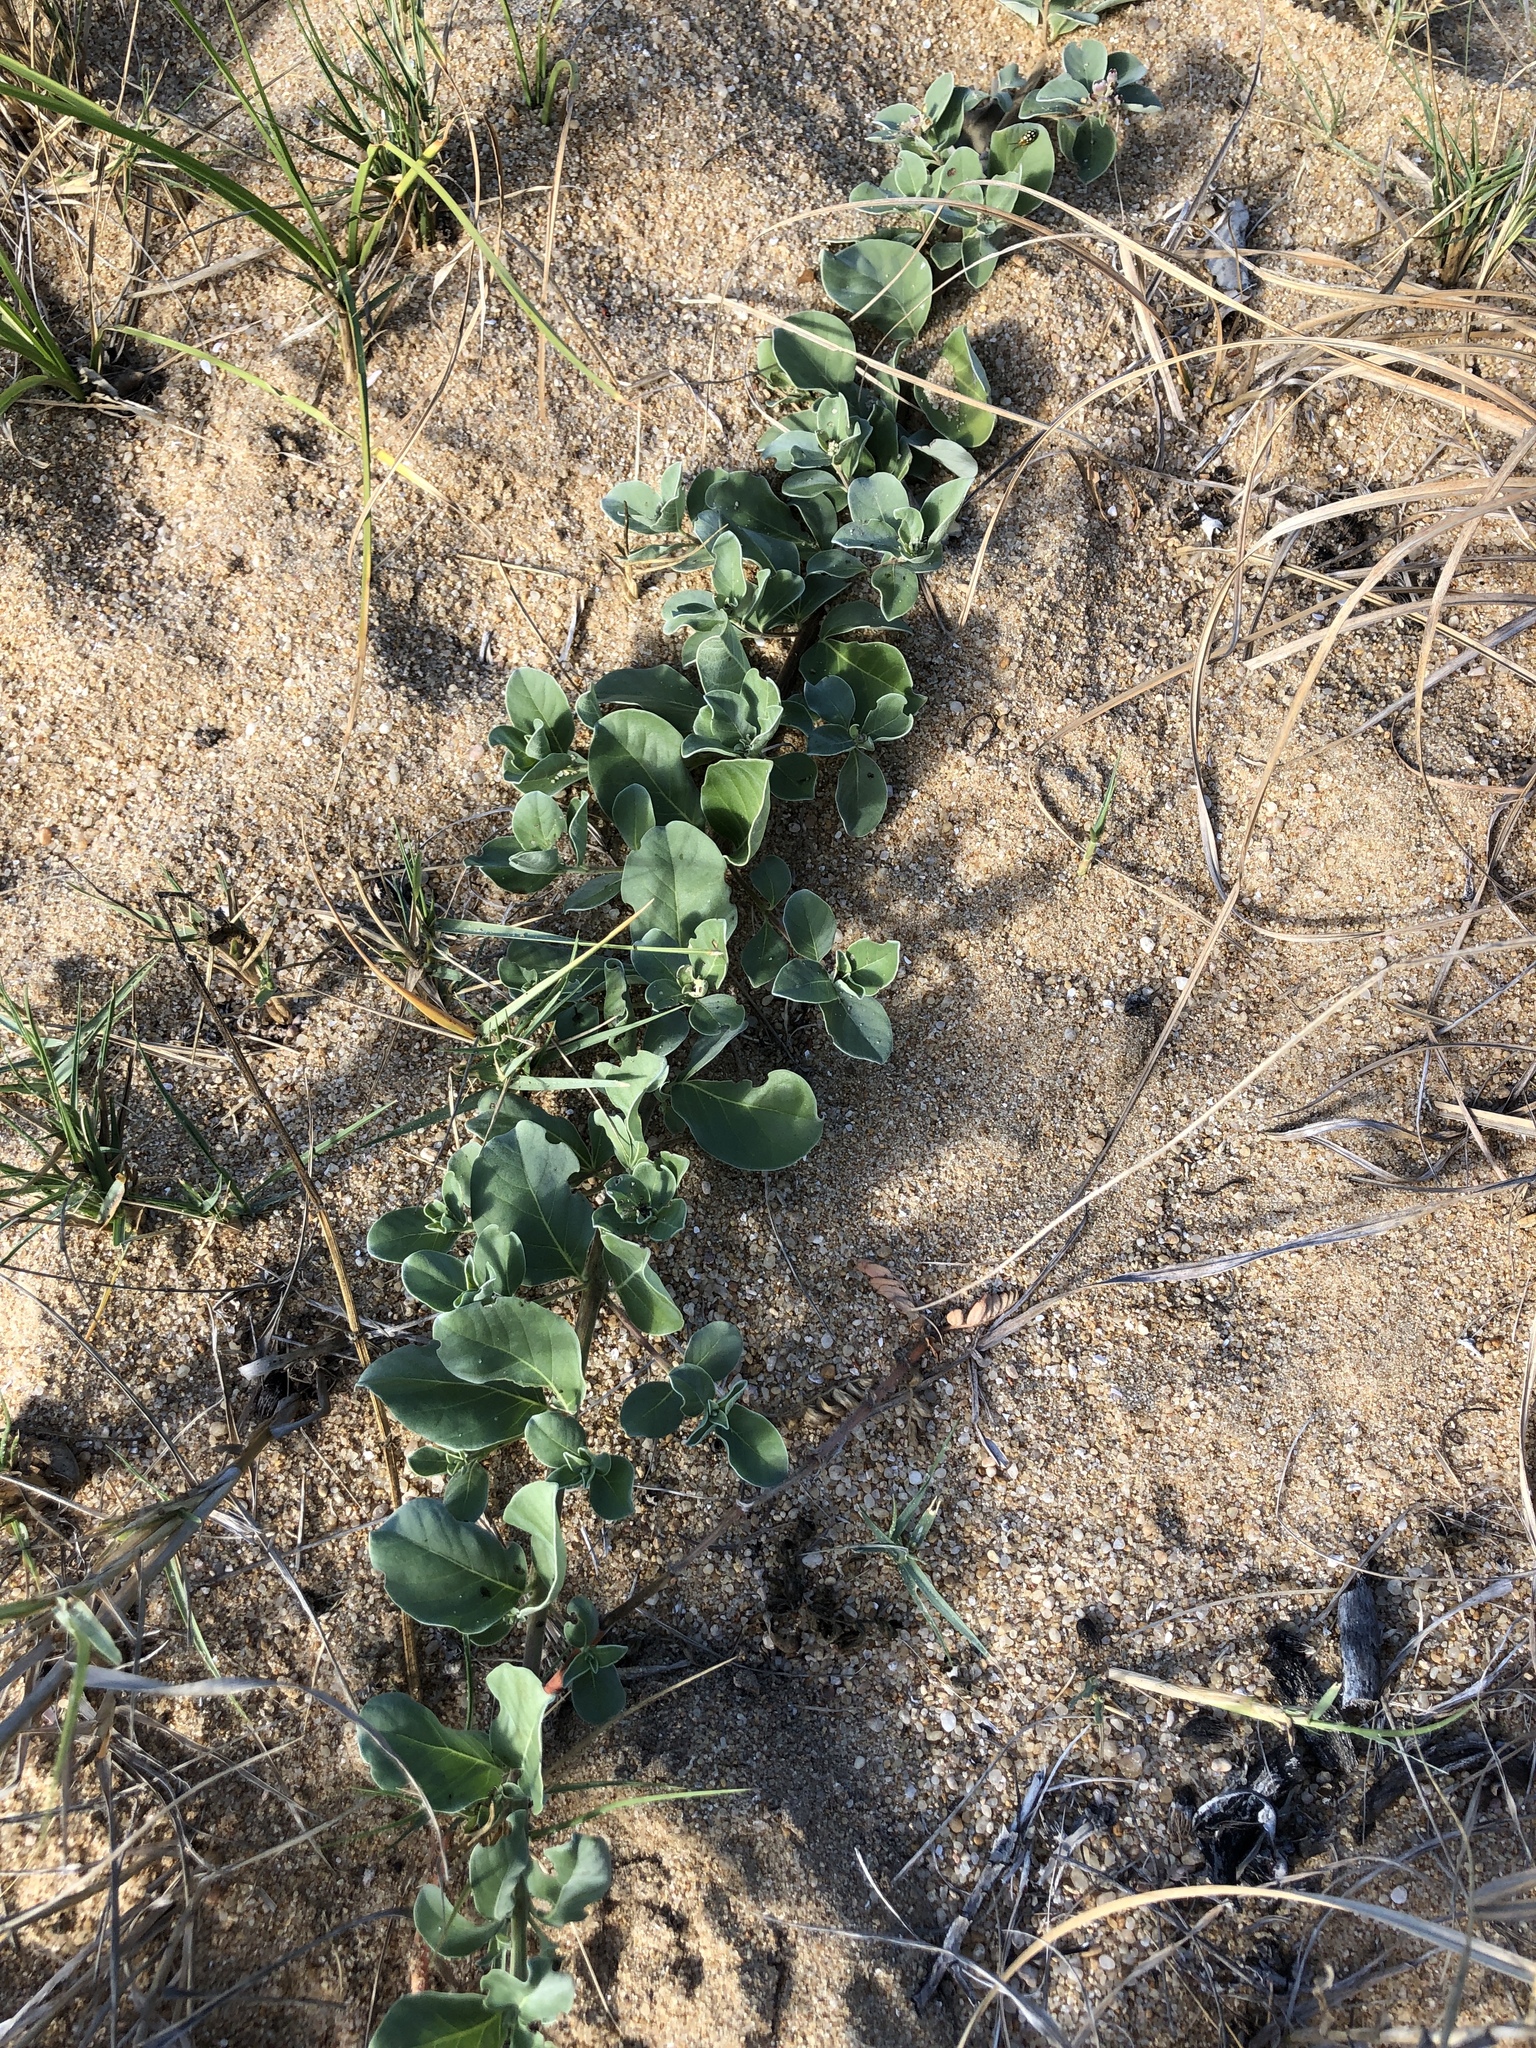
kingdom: Plantae
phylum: Tracheophyta
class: Magnoliopsida
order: Lamiales
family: Lamiaceae
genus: Vitex
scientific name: Vitex rotundifolia
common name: Beach vitex
